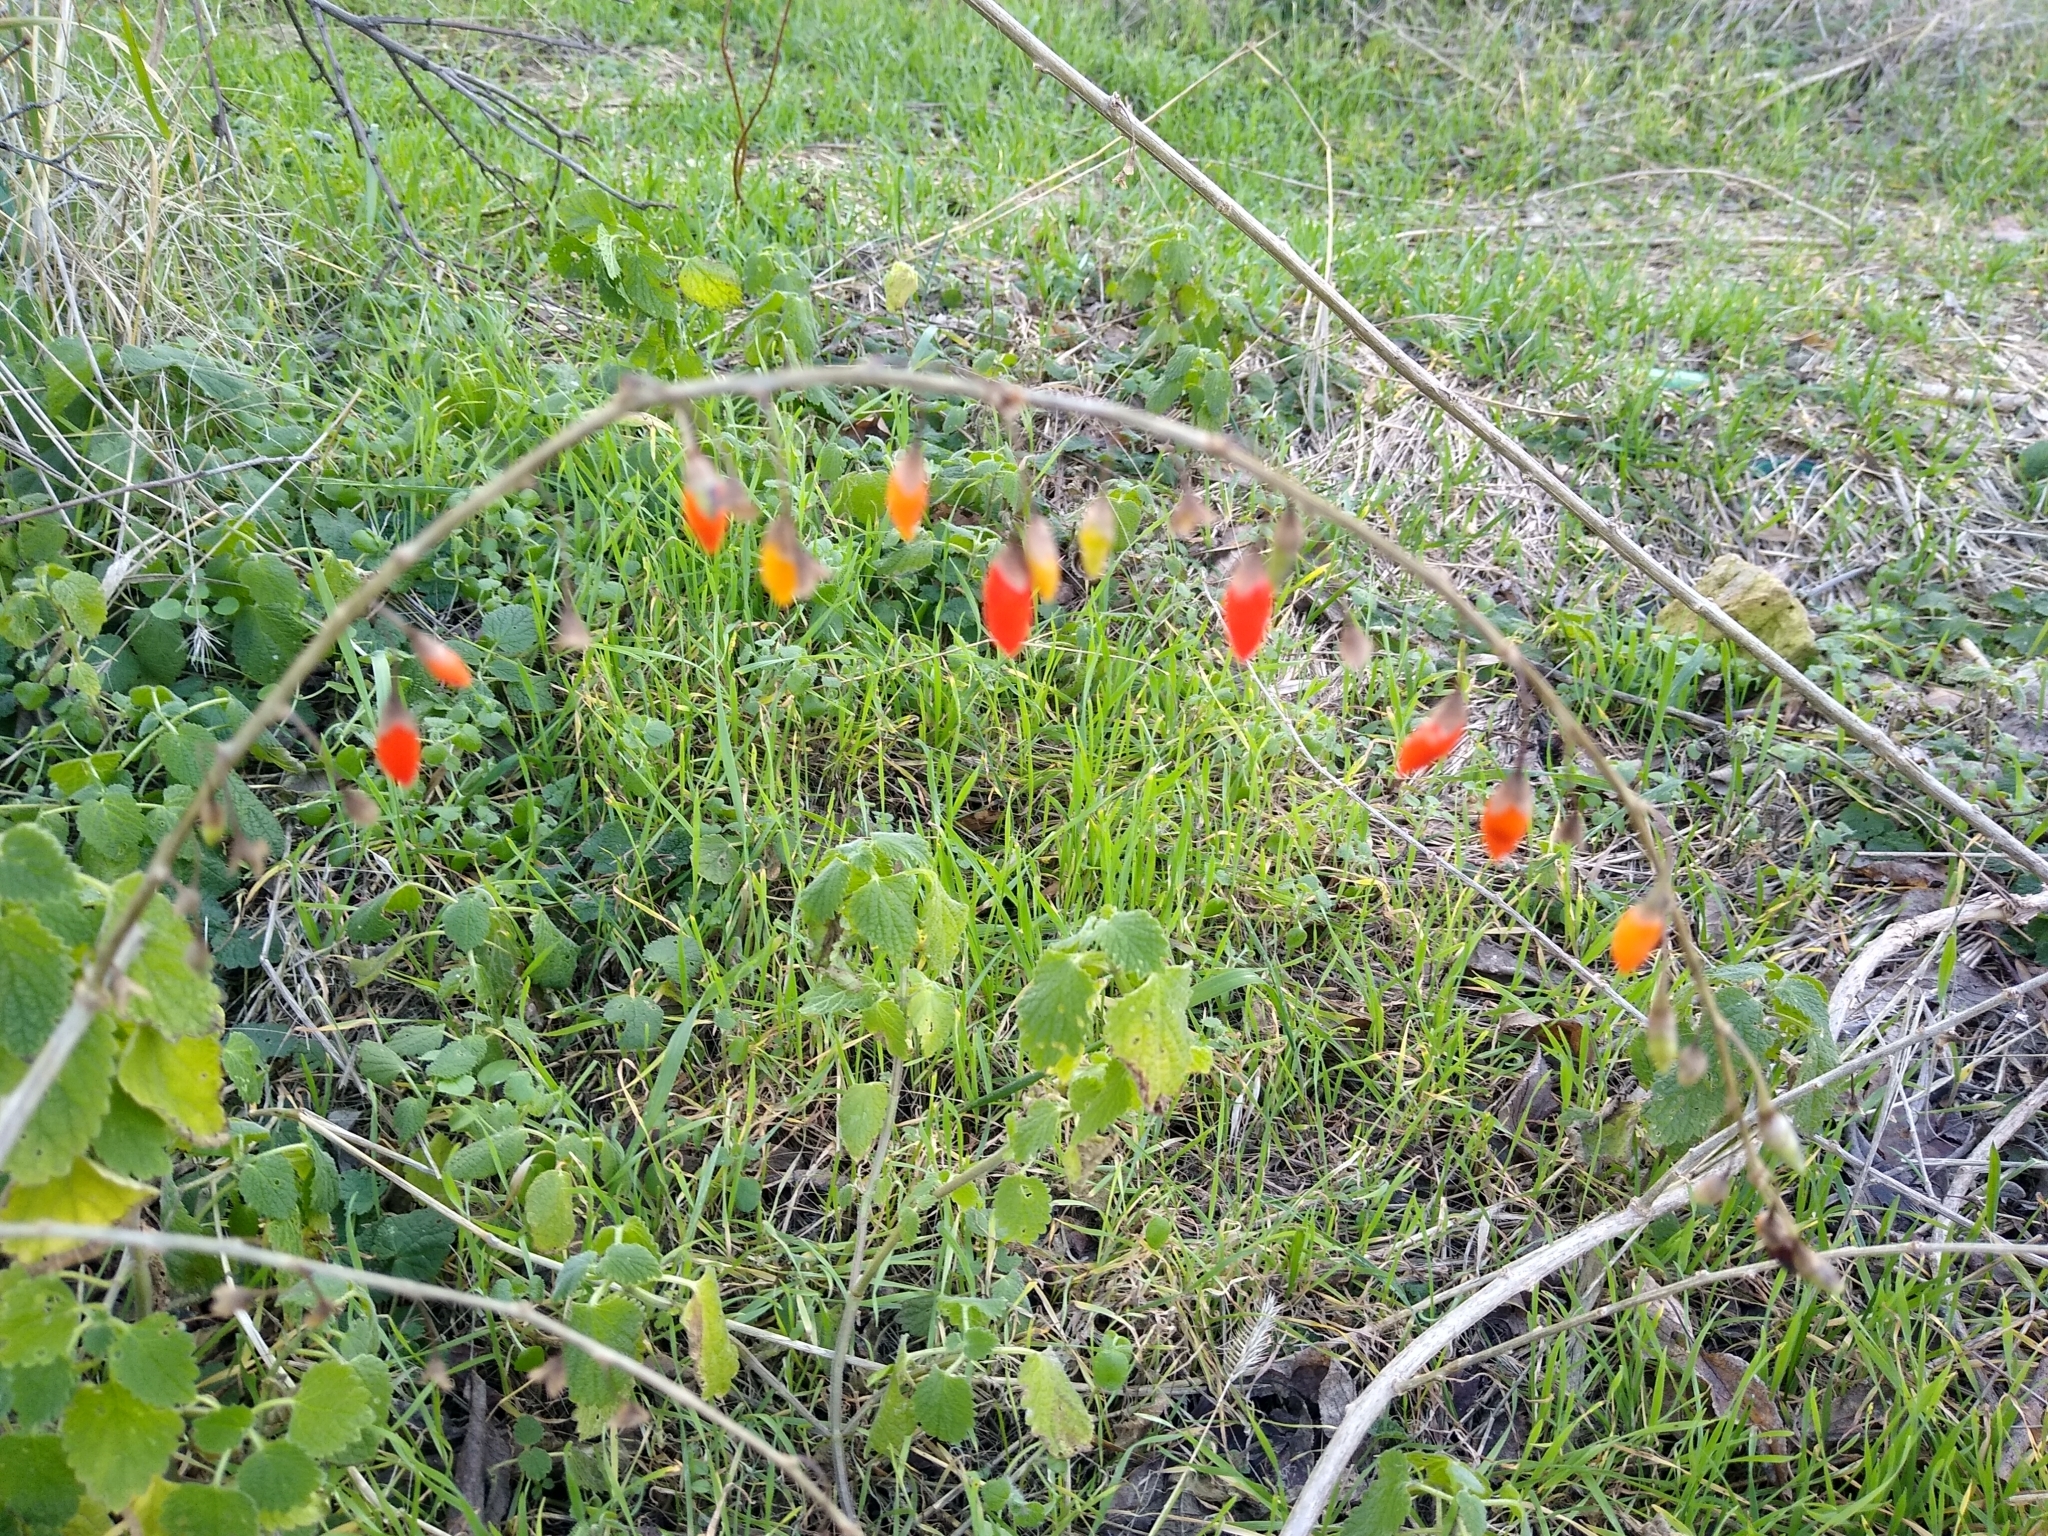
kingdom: Plantae
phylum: Tracheophyta
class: Magnoliopsida
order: Solanales
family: Solanaceae
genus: Lycium
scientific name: Lycium barbarum
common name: Duke of argyll's teaplant
